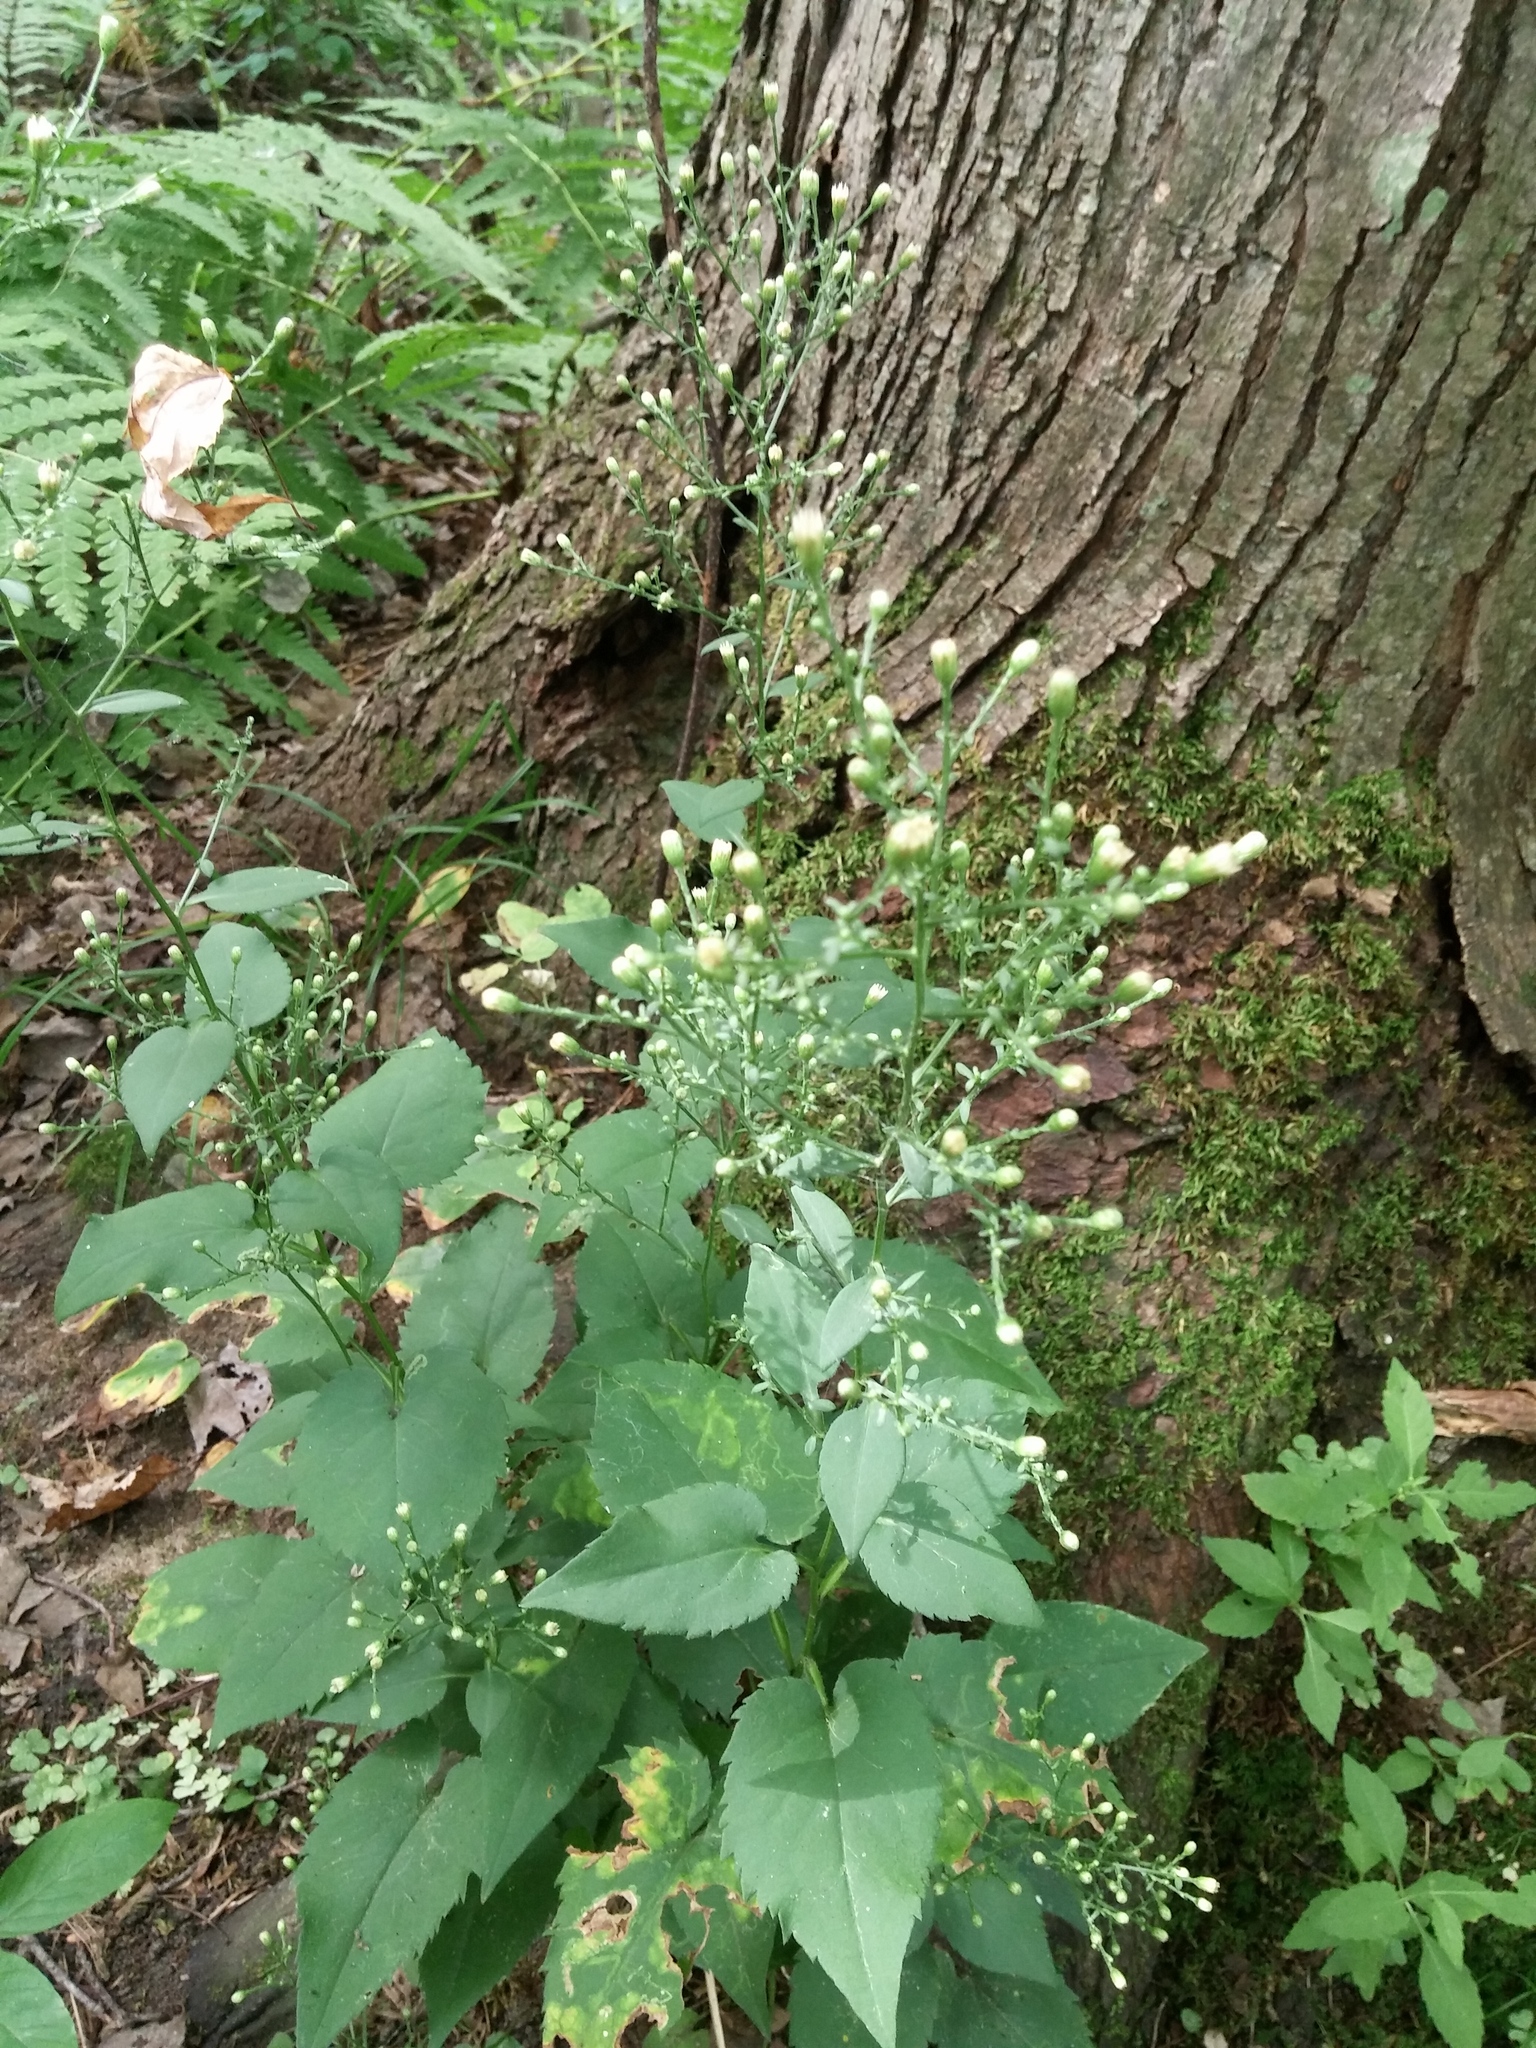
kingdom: Plantae
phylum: Tracheophyta
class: Magnoliopsida
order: Asterales
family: Asteraceae
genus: Symphyotrichum
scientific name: Symphyotrichum cordifolium
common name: Beeweed
